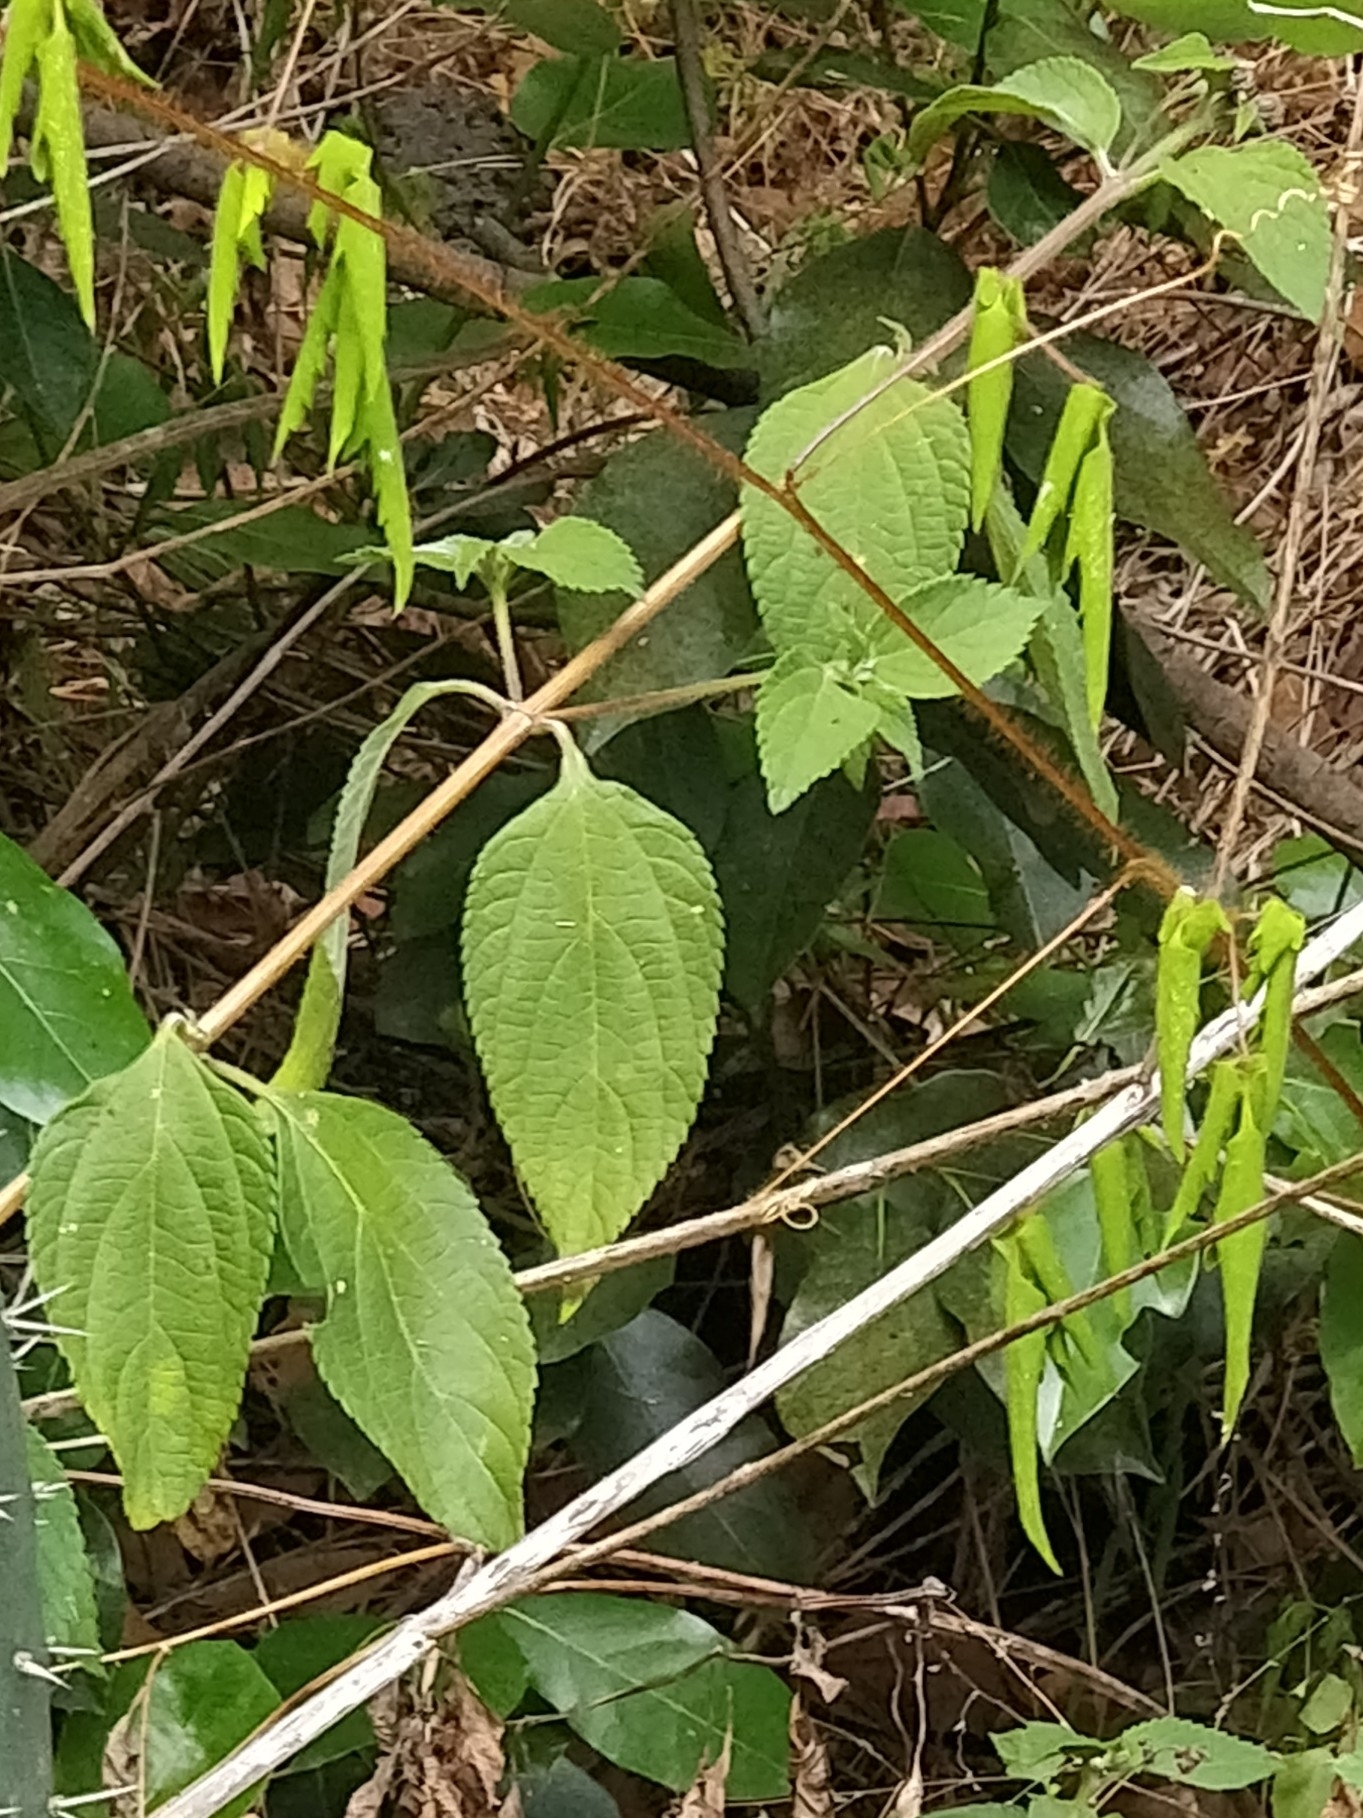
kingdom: Plantae
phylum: Tracheophyta
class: Magnoliopsida
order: Lamiales
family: Verbenaceae
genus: Lantana
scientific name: Lantana camara
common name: Lantana
